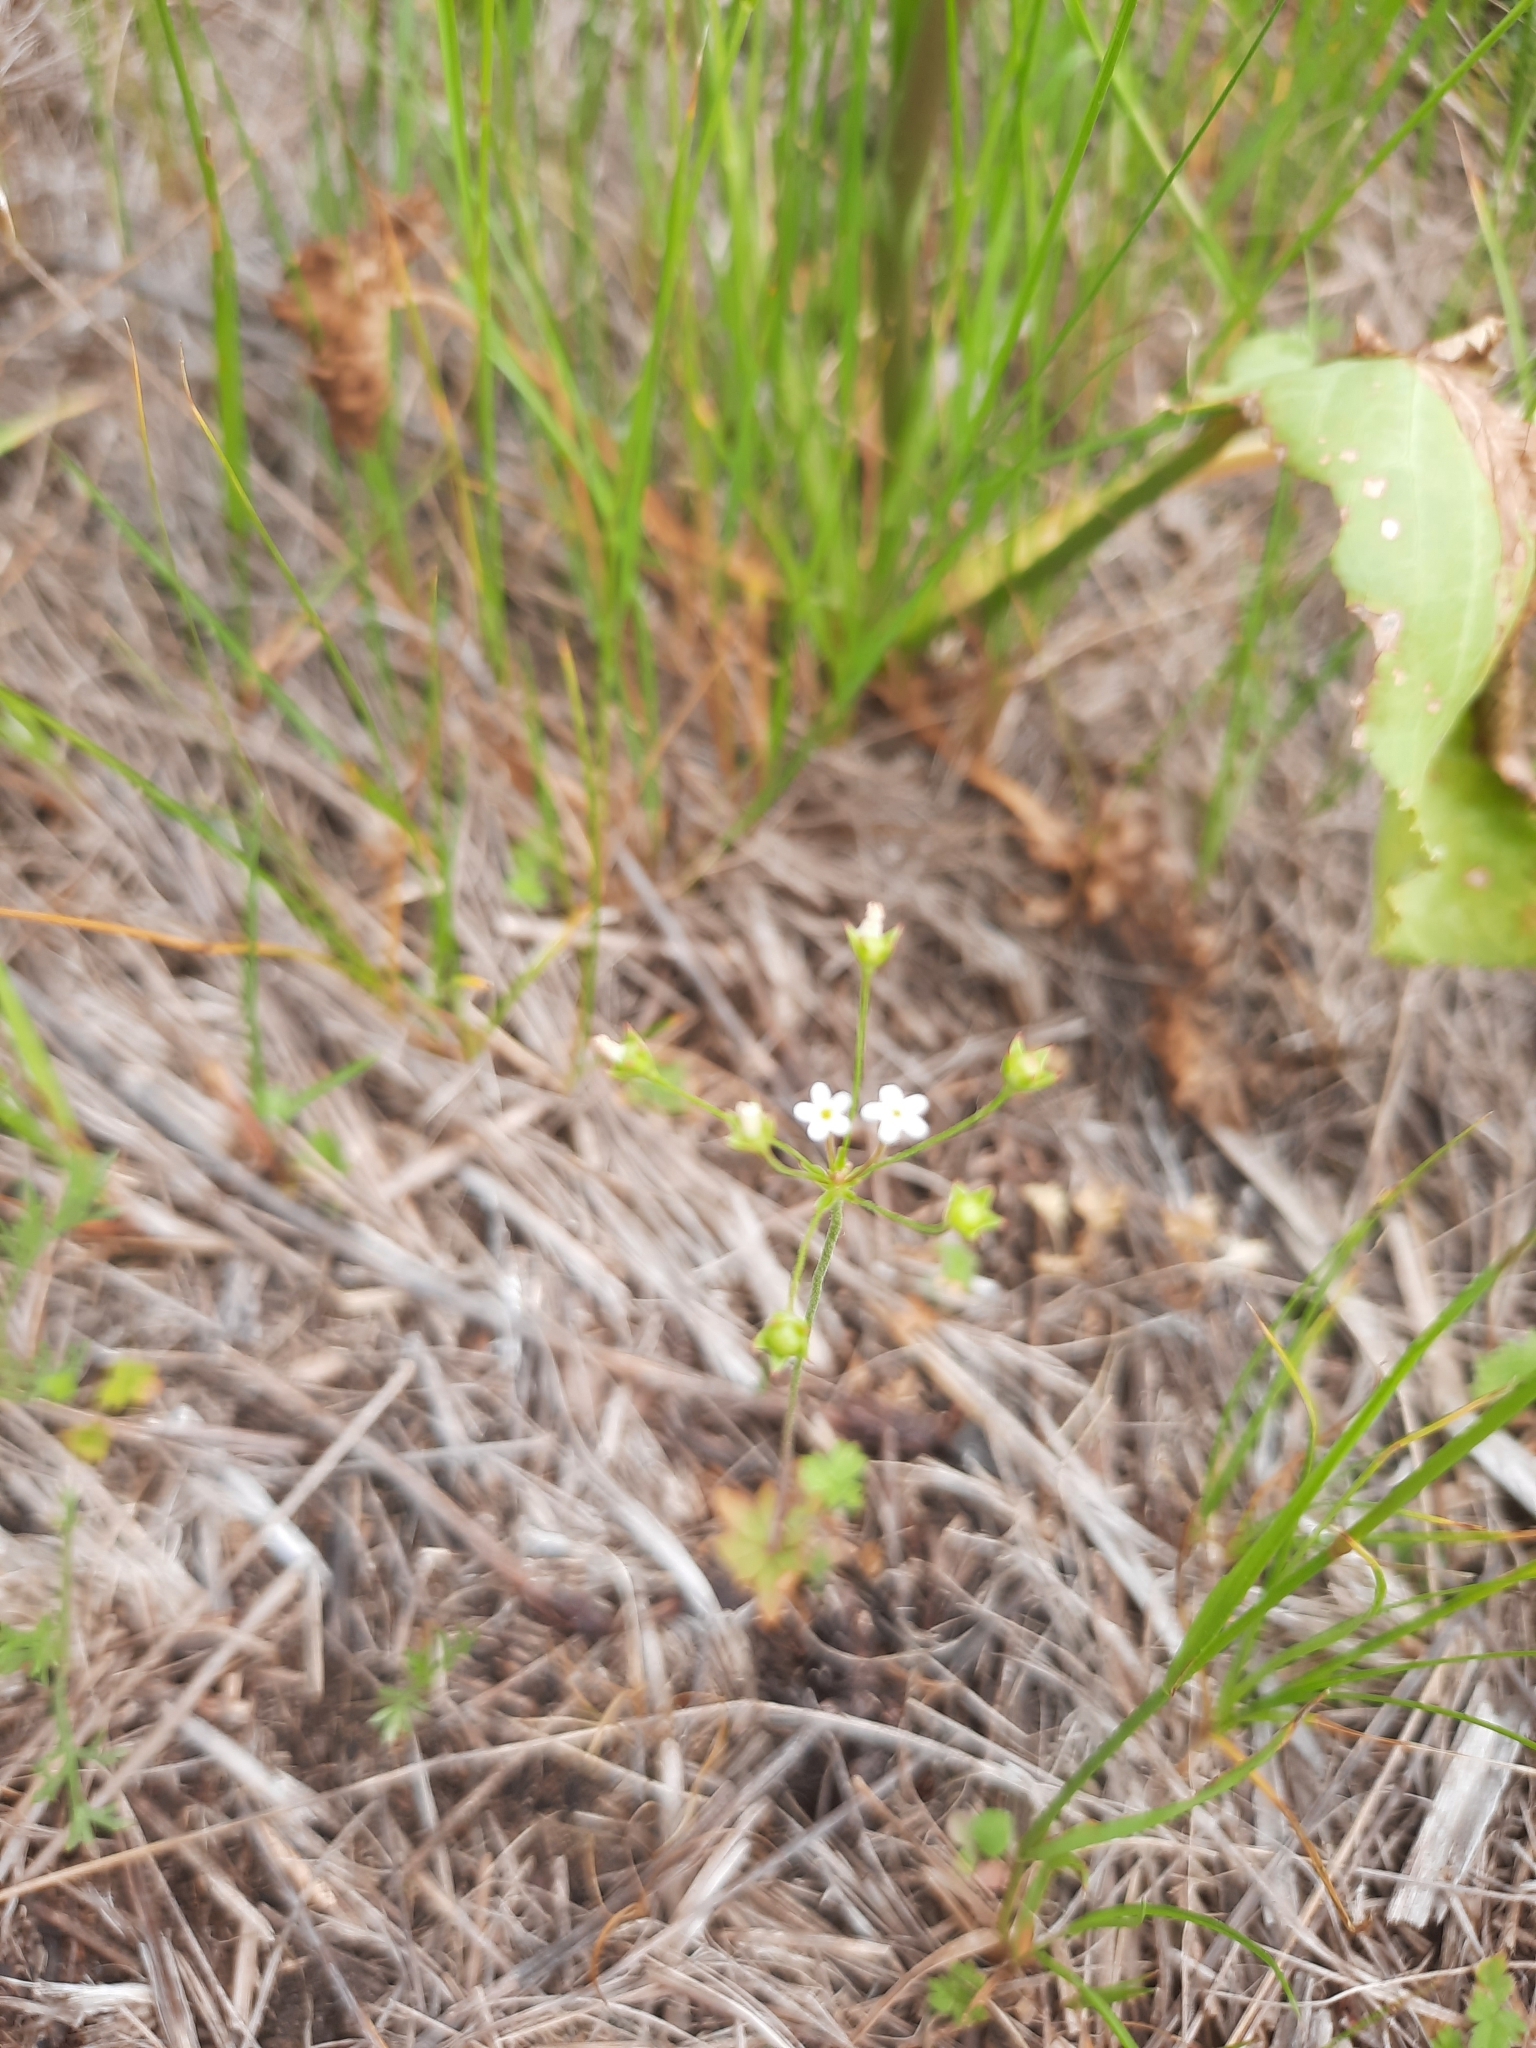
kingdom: Plantae
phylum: Tracheophyta
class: Magnoliopsida
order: Ericales
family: Primulaceae
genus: Androsace
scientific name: Androsace septentrionalis
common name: Hairy northern fairy-candelabra
